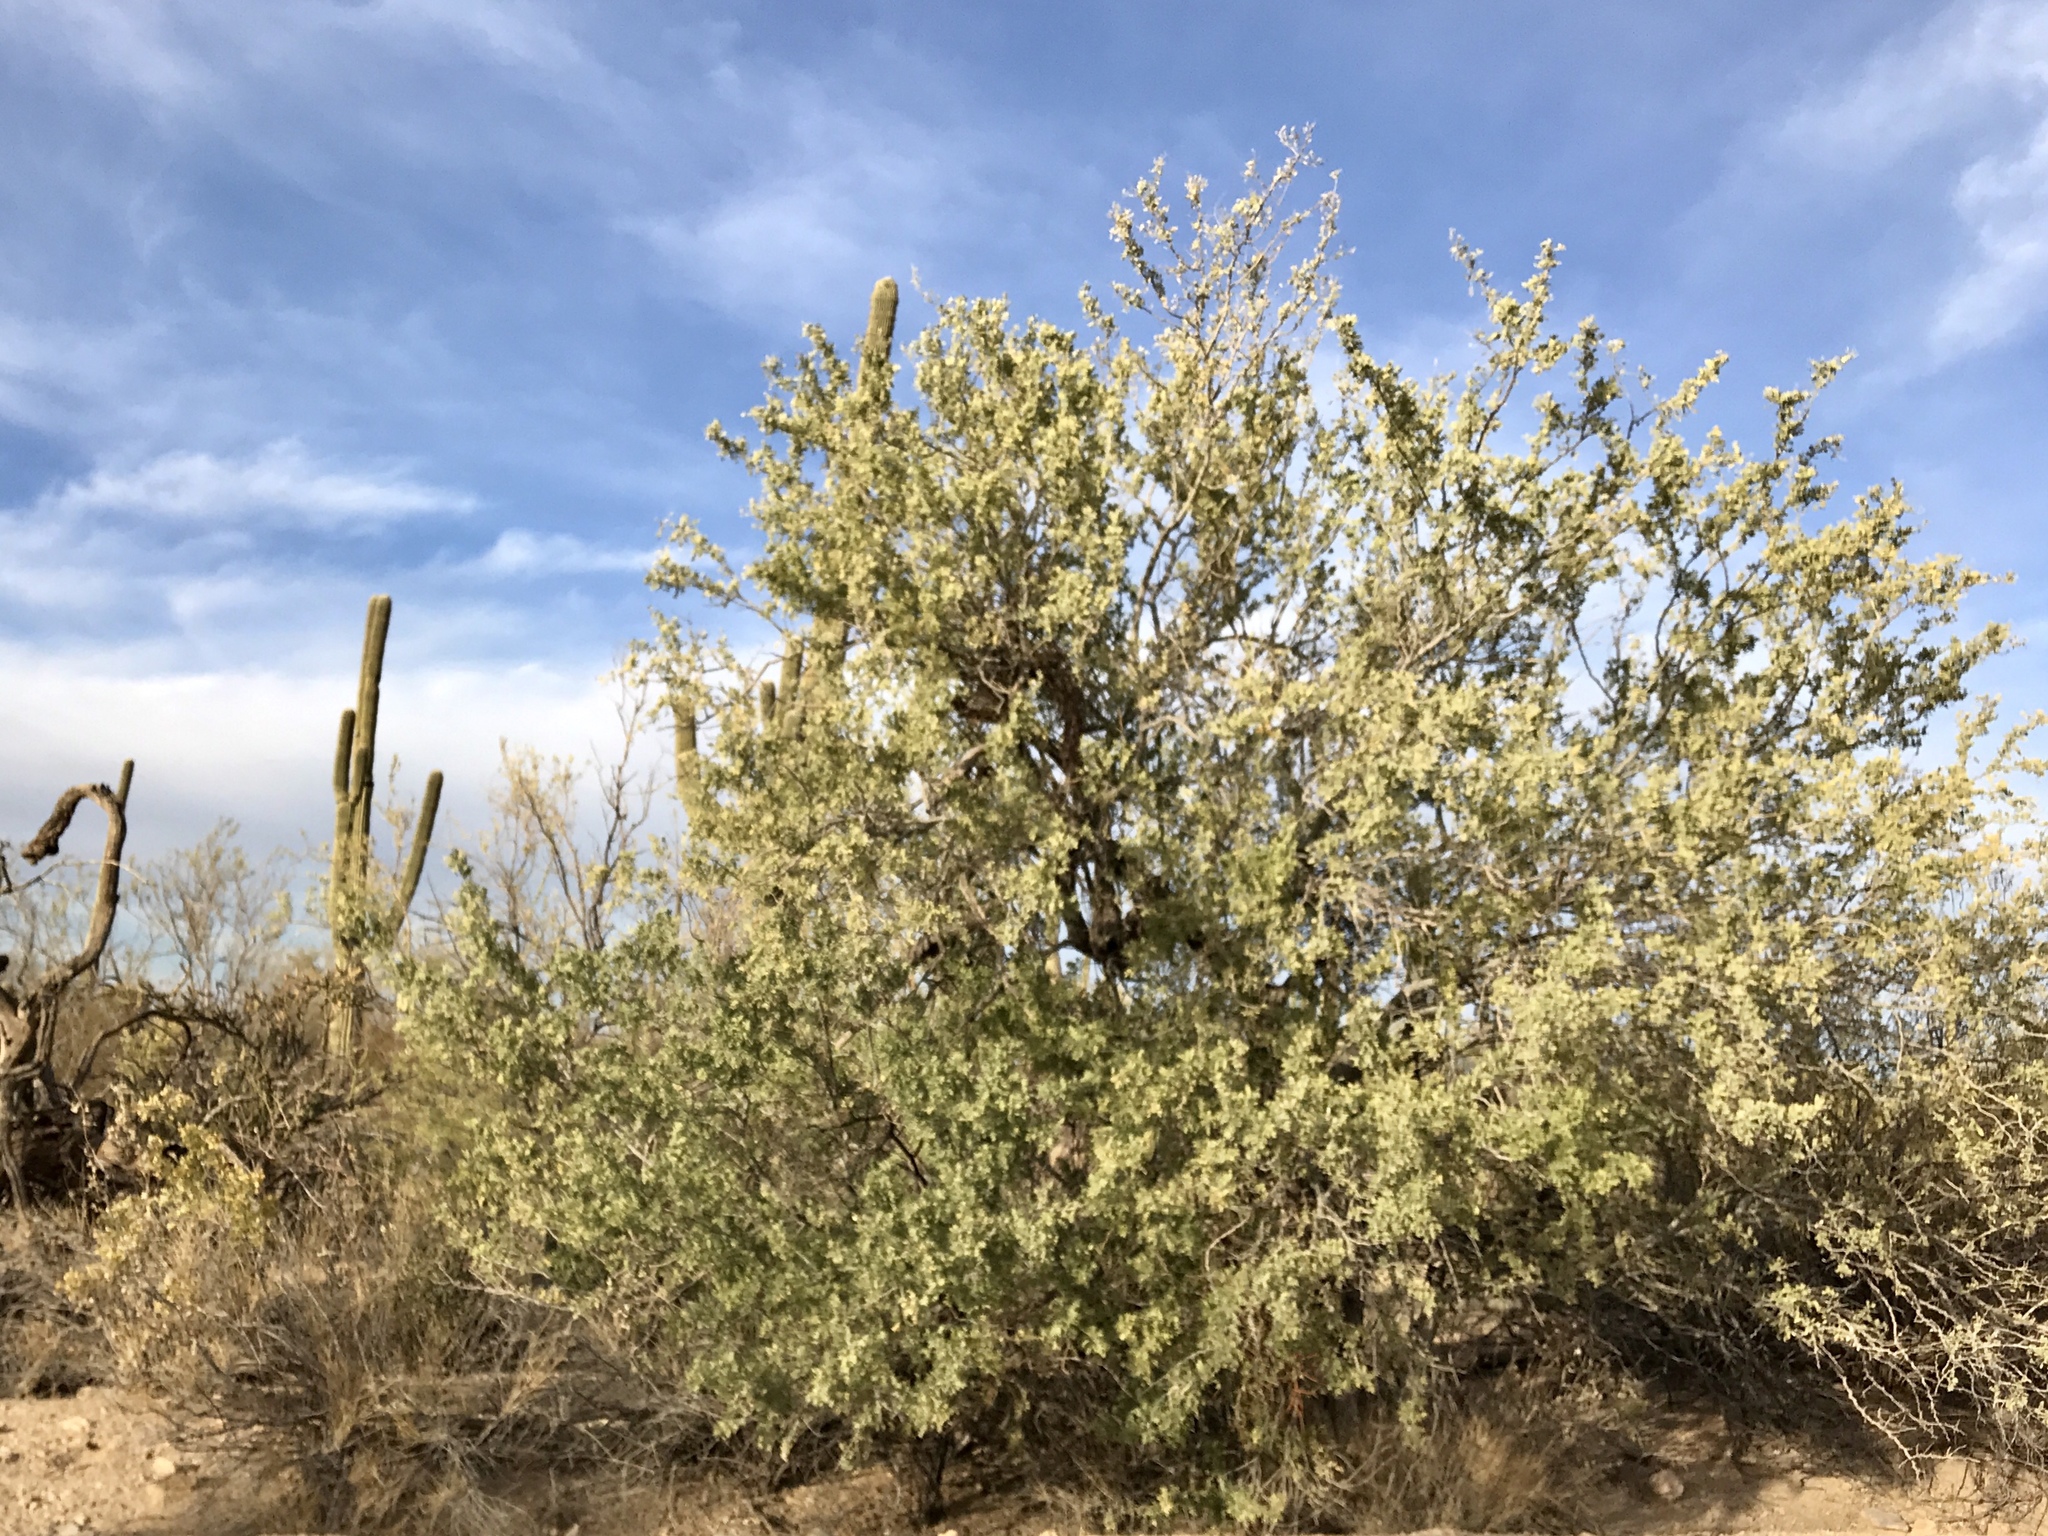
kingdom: Plantae
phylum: Tracheophyta
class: Magnoliopsida
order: Fabales
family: Fabaceae
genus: Olneya
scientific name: Olneya tesota
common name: Desert ironwood
